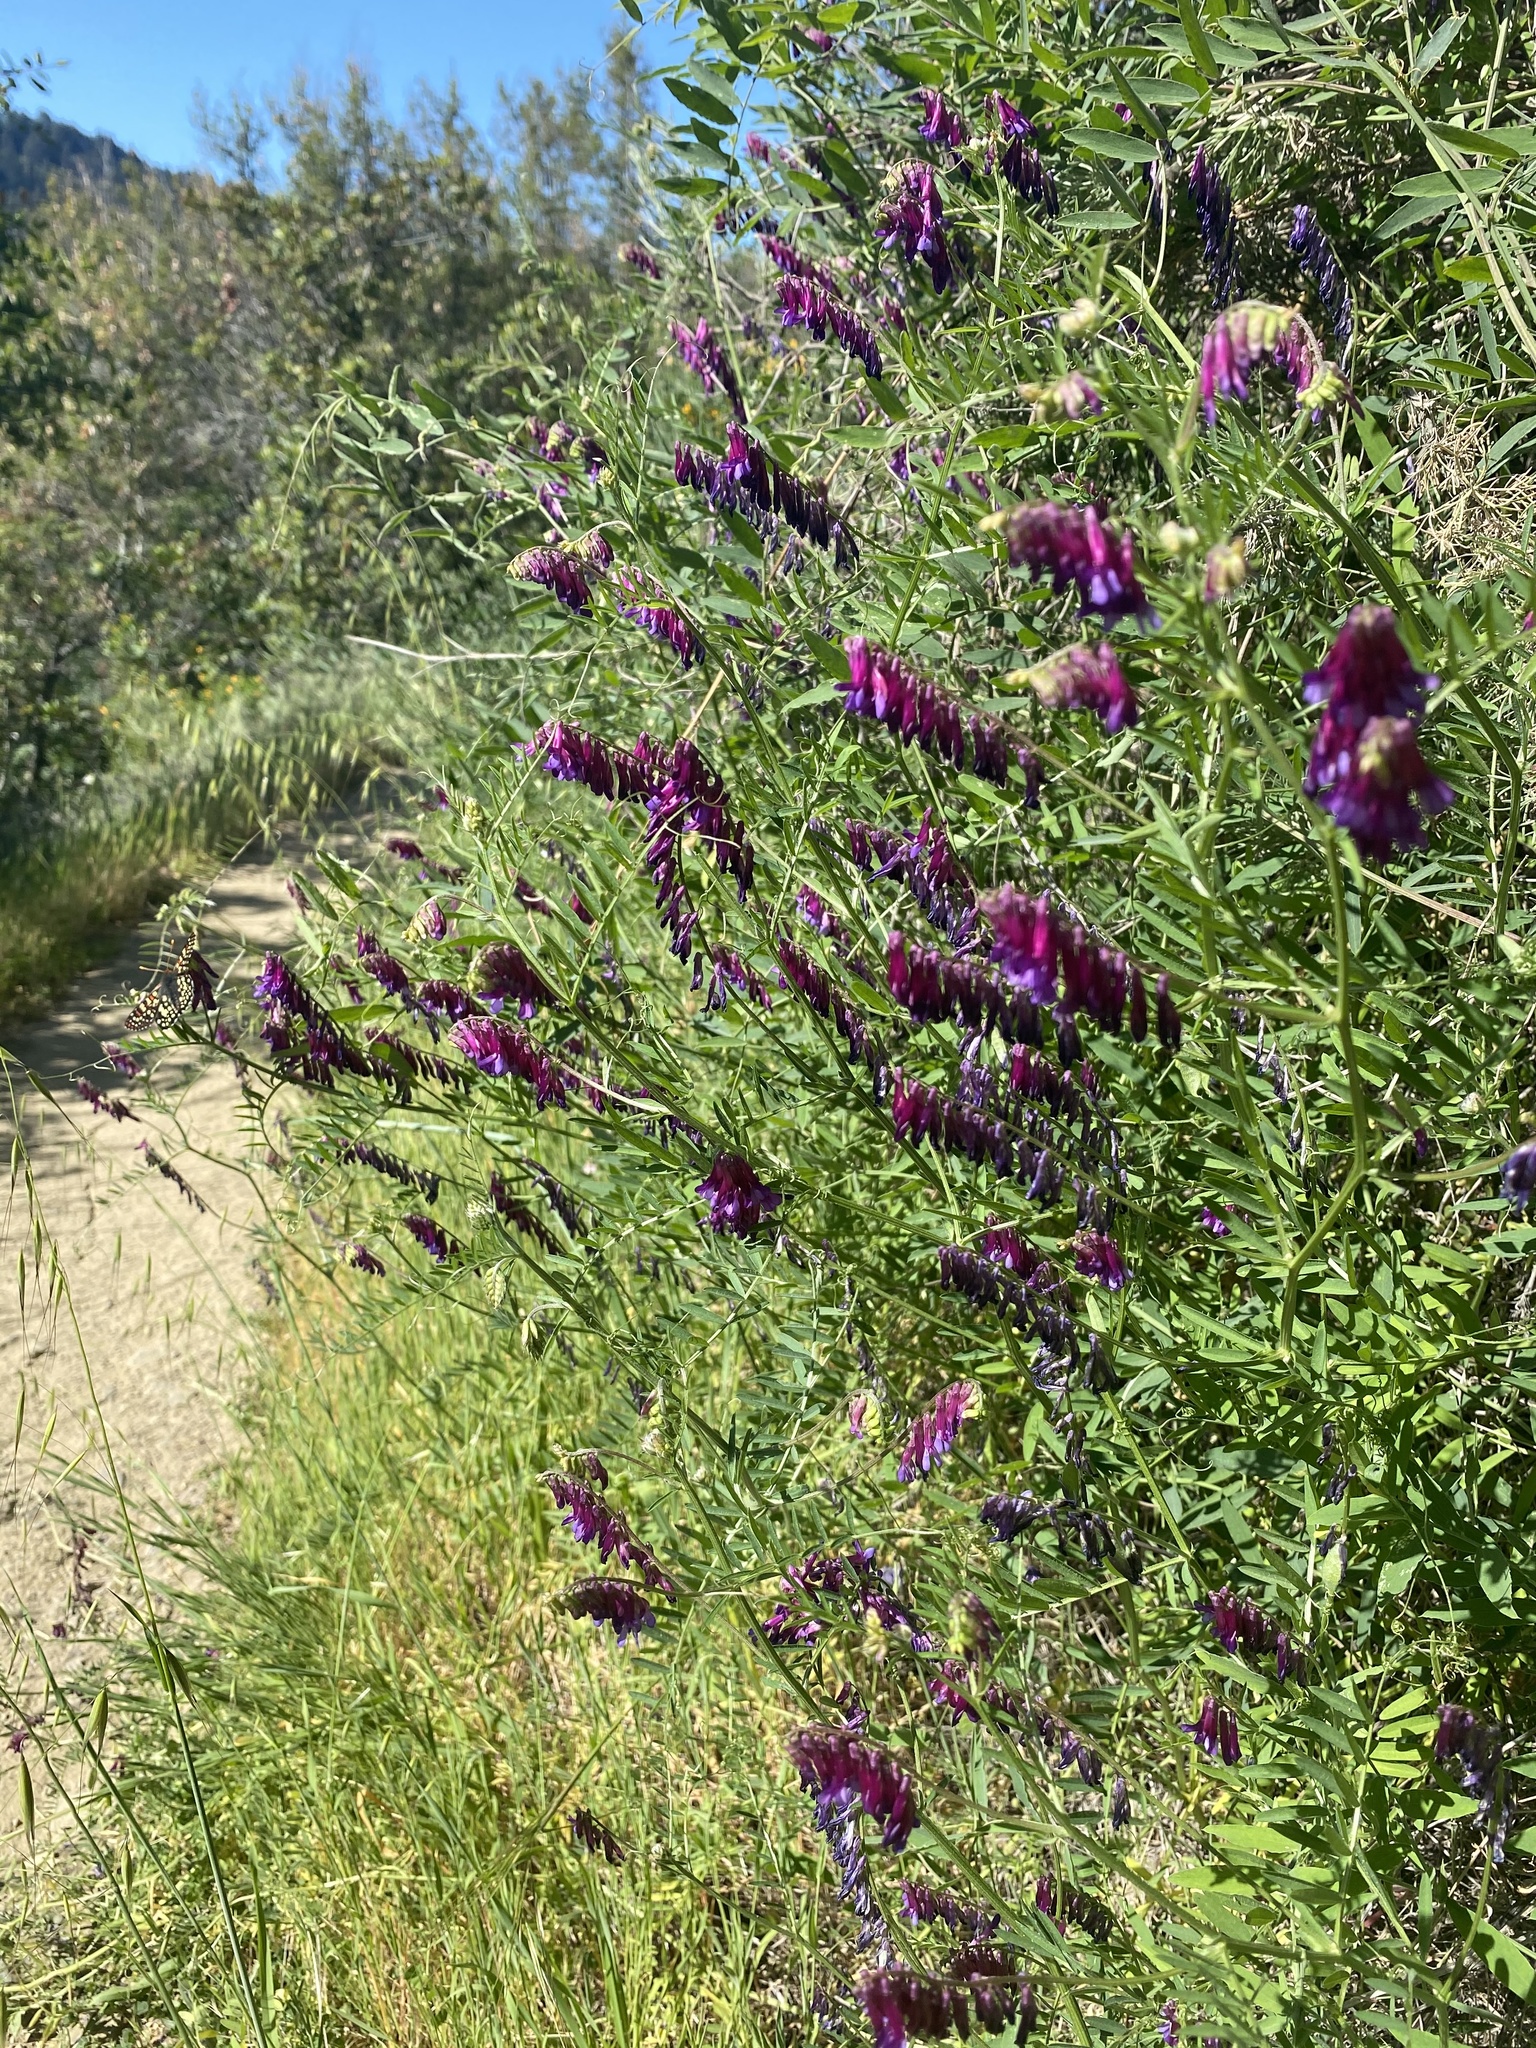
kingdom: Plantae
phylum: Tracheophyta
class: Magnoliopsida
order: Fabales
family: Fabaceae
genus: Vicia
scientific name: Vicia villosa
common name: Fodder vetch
